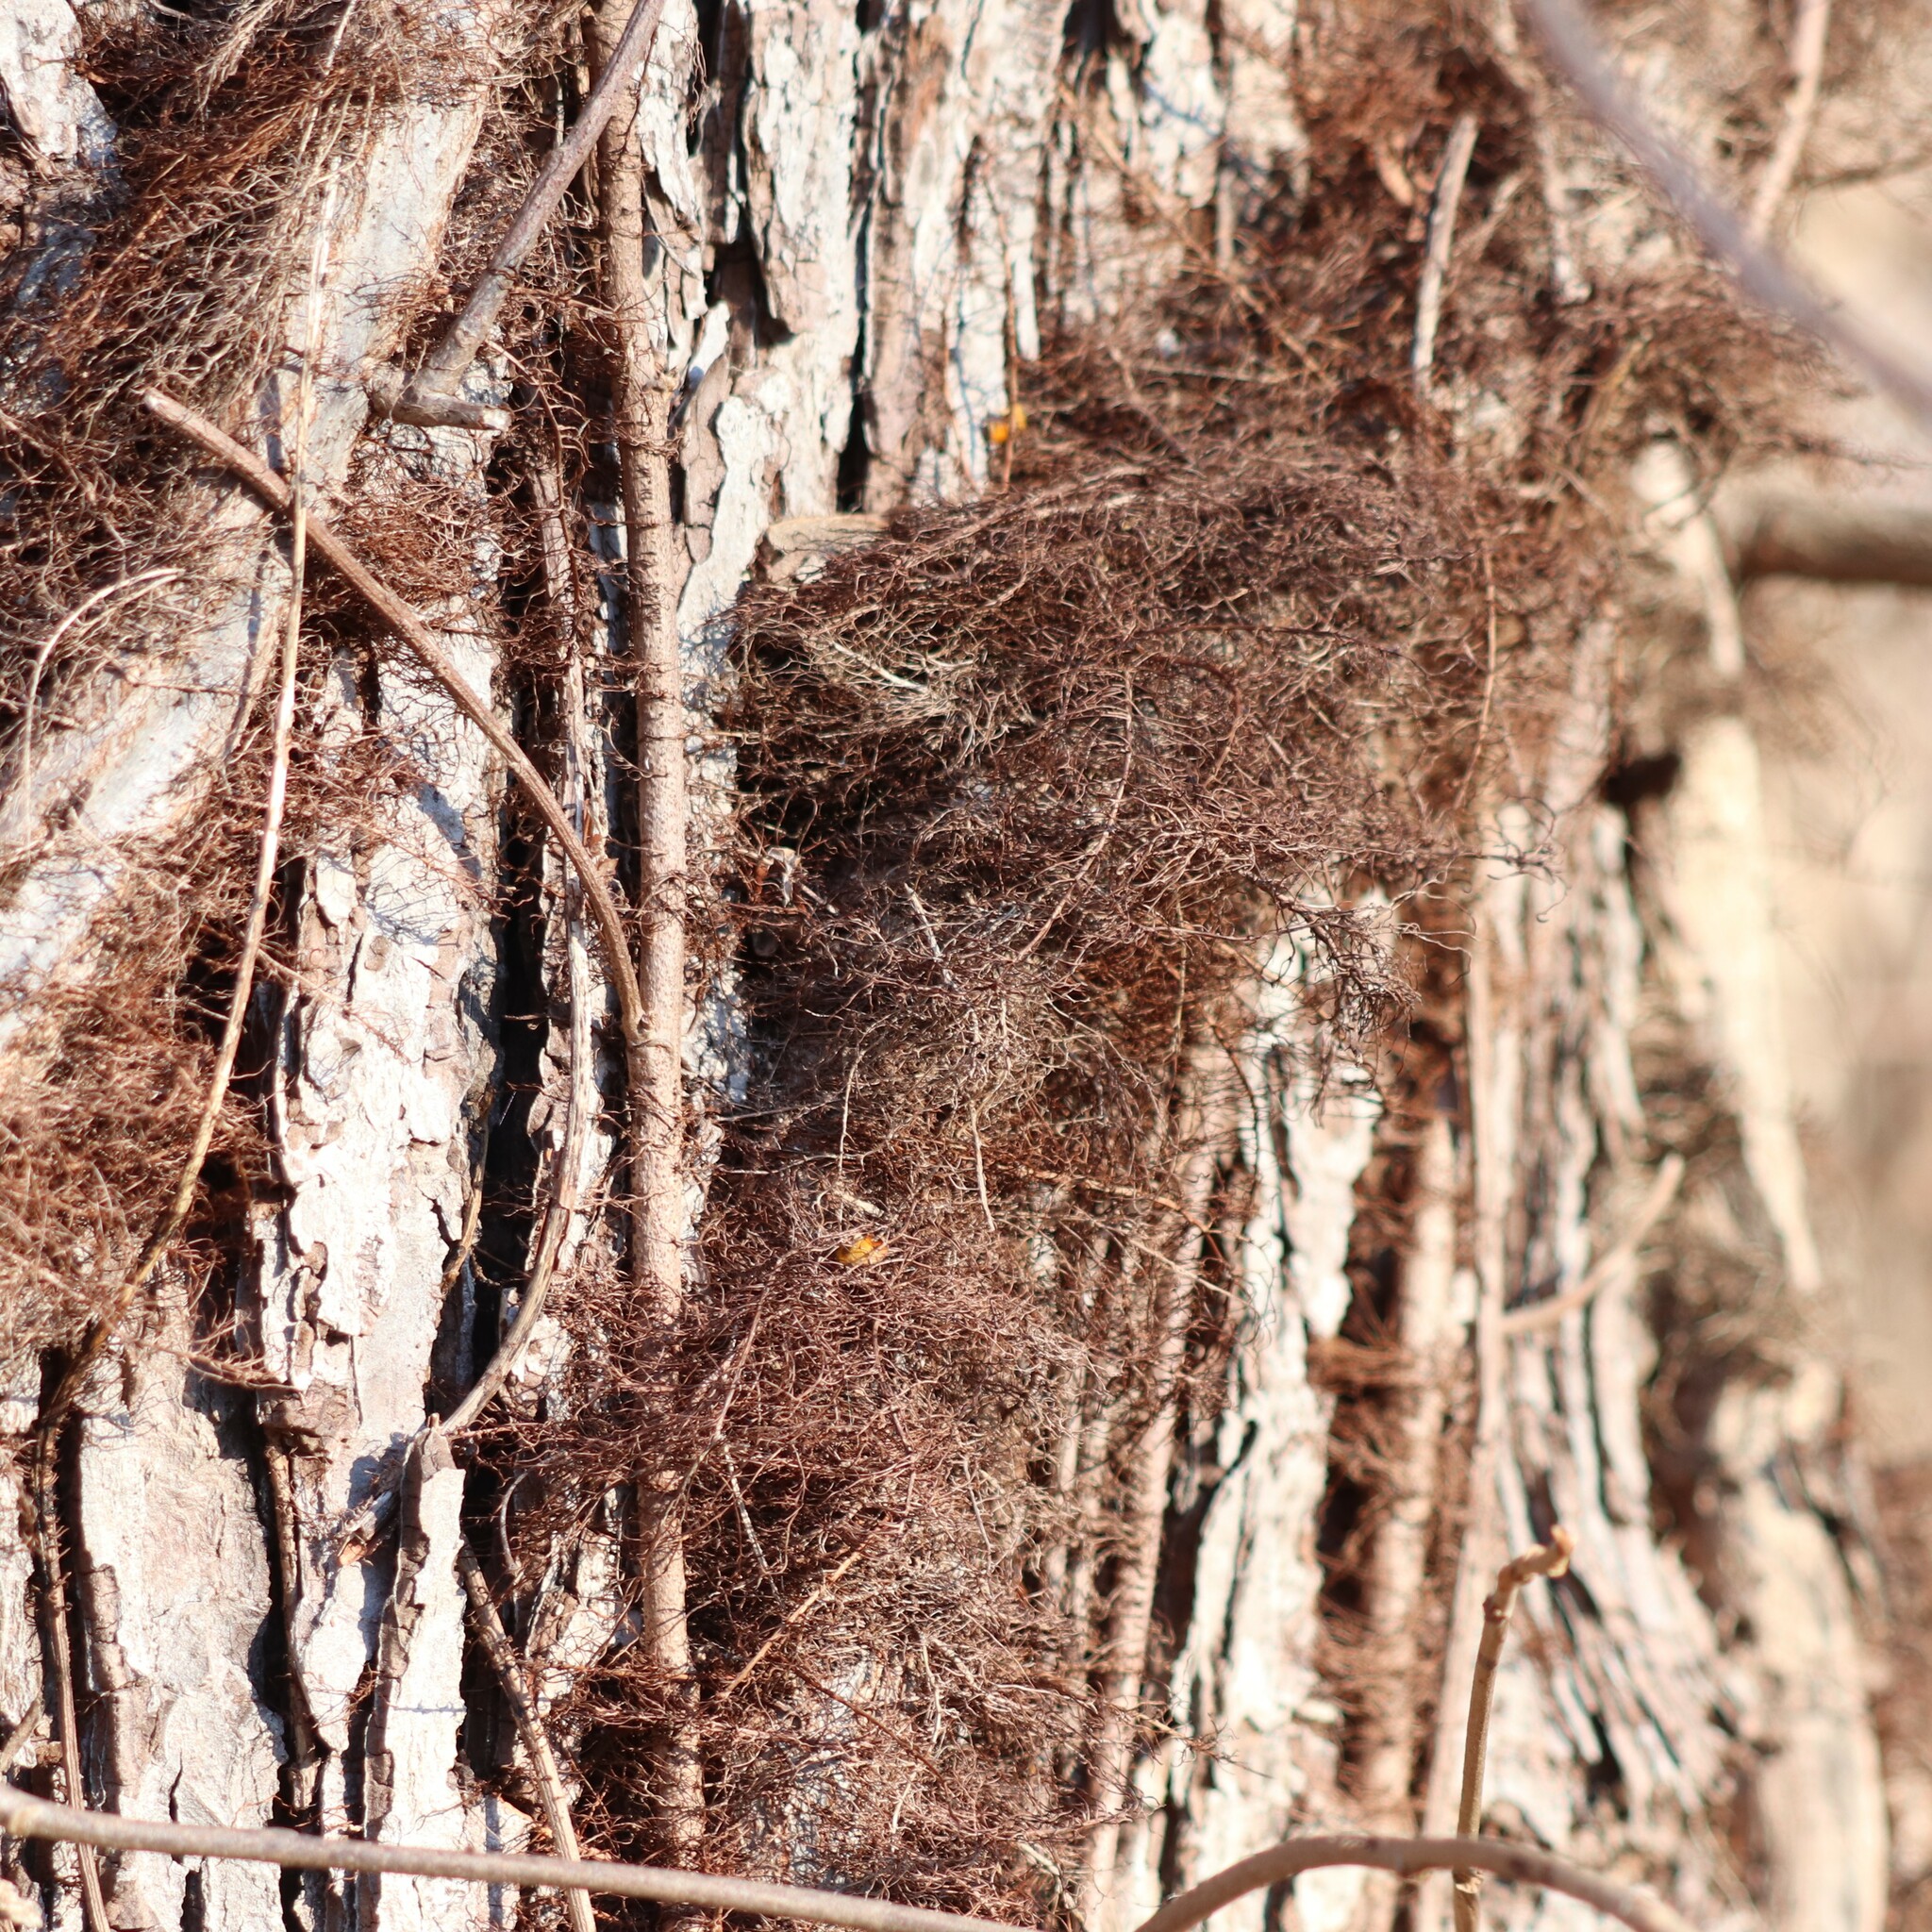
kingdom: Plantae
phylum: Tracheophyta
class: Magnoliopsida
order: Sapindales
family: Anacardiaceae
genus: Toxicodendron
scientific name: Toxicodendron radicans
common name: Poison ivy
